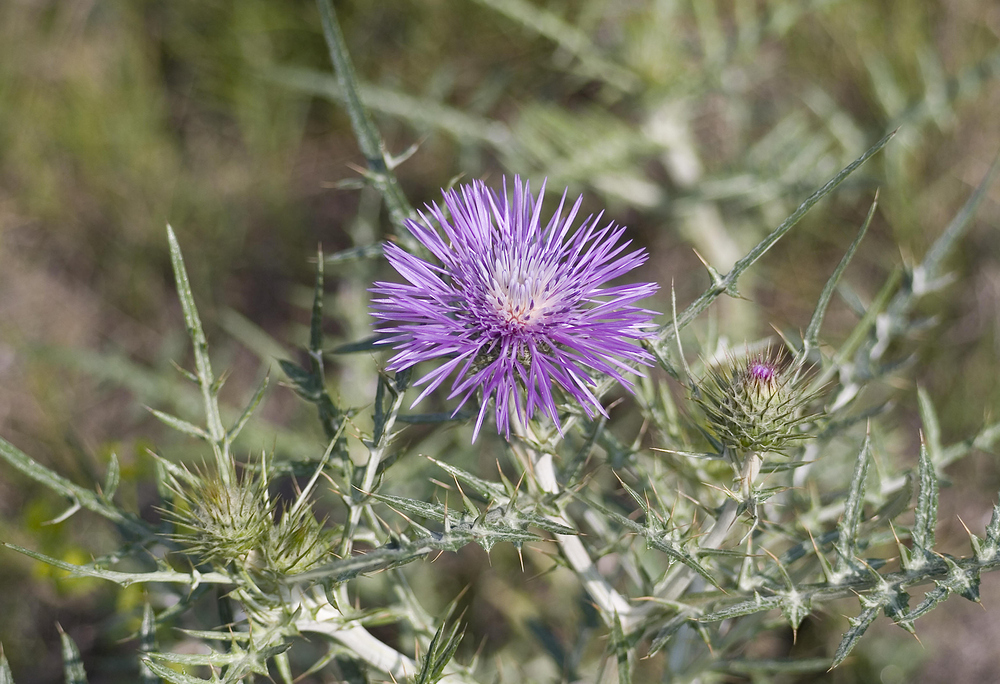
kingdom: Plantae
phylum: Tracheophyta
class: Magnoliopsida
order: Asterales
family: Asteraceae
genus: Galactites
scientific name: Galactites tomentosa
